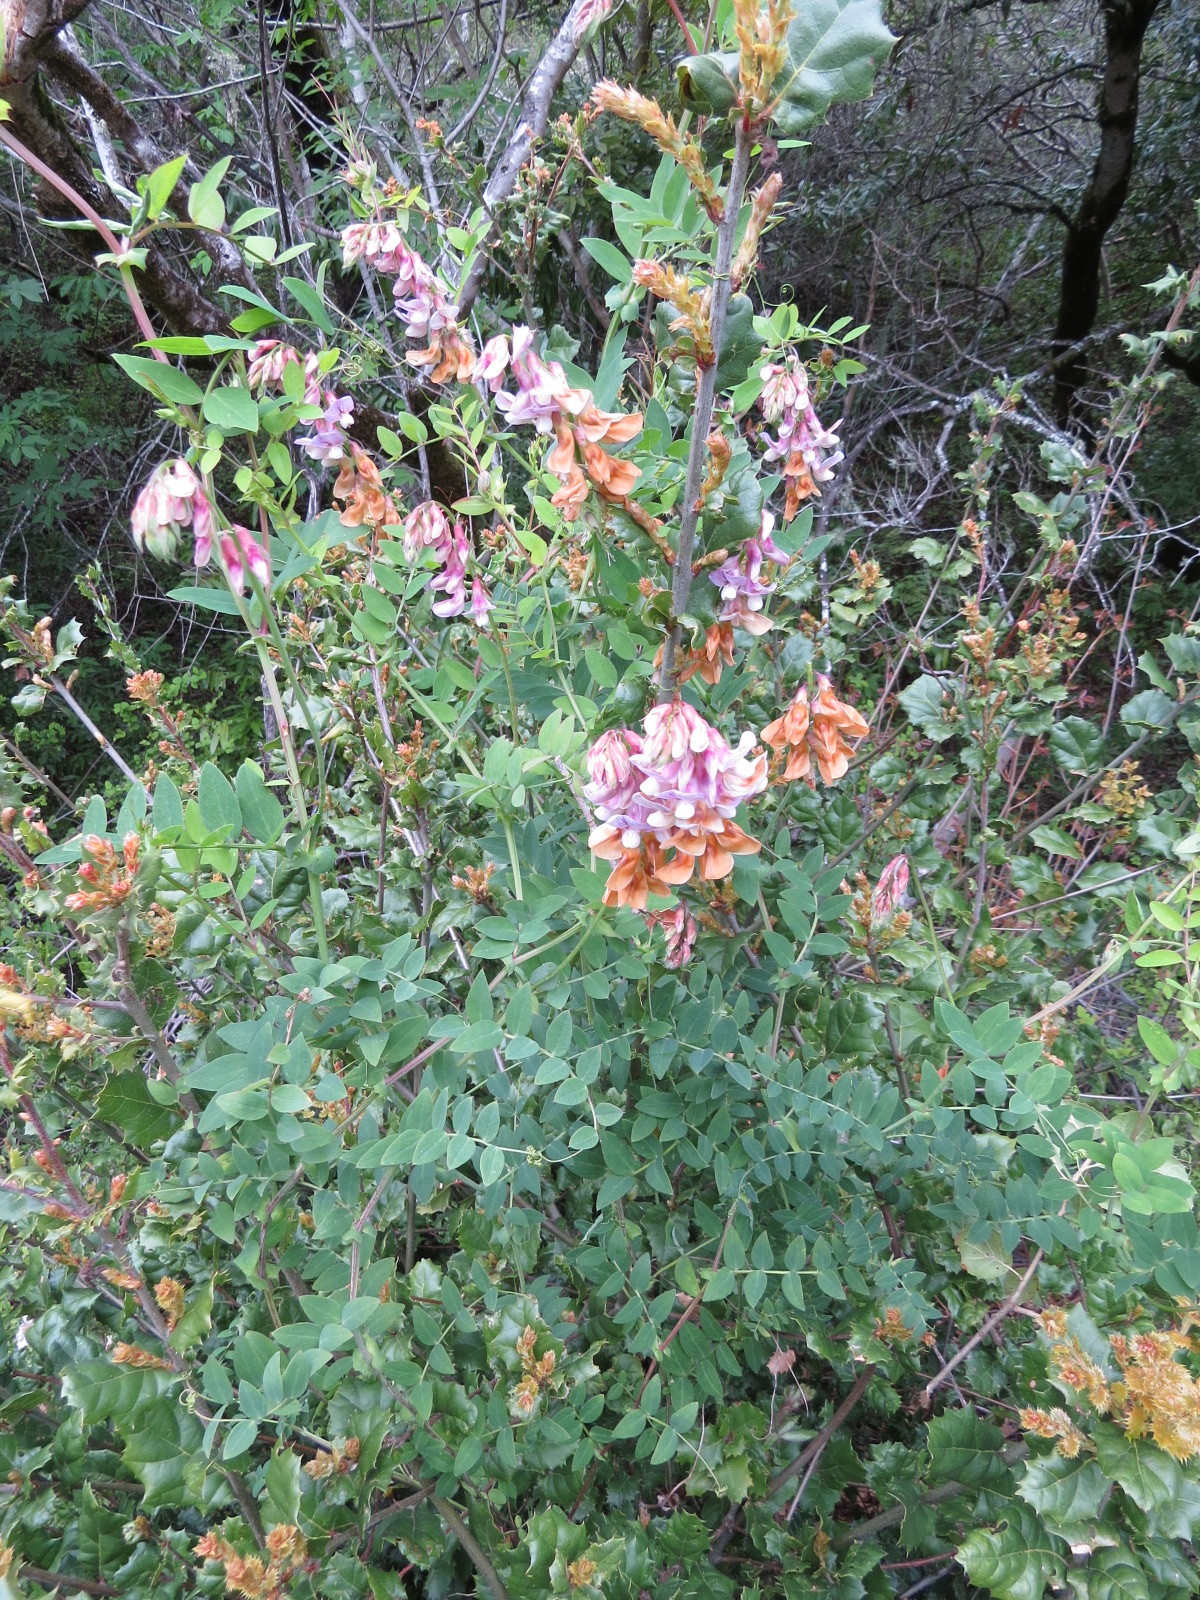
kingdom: Plantae
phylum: Tracheophyta
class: Magnoliopsida
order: Fabales
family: Fabaceae
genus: Lathyrus
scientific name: Lathyrus vestitus
